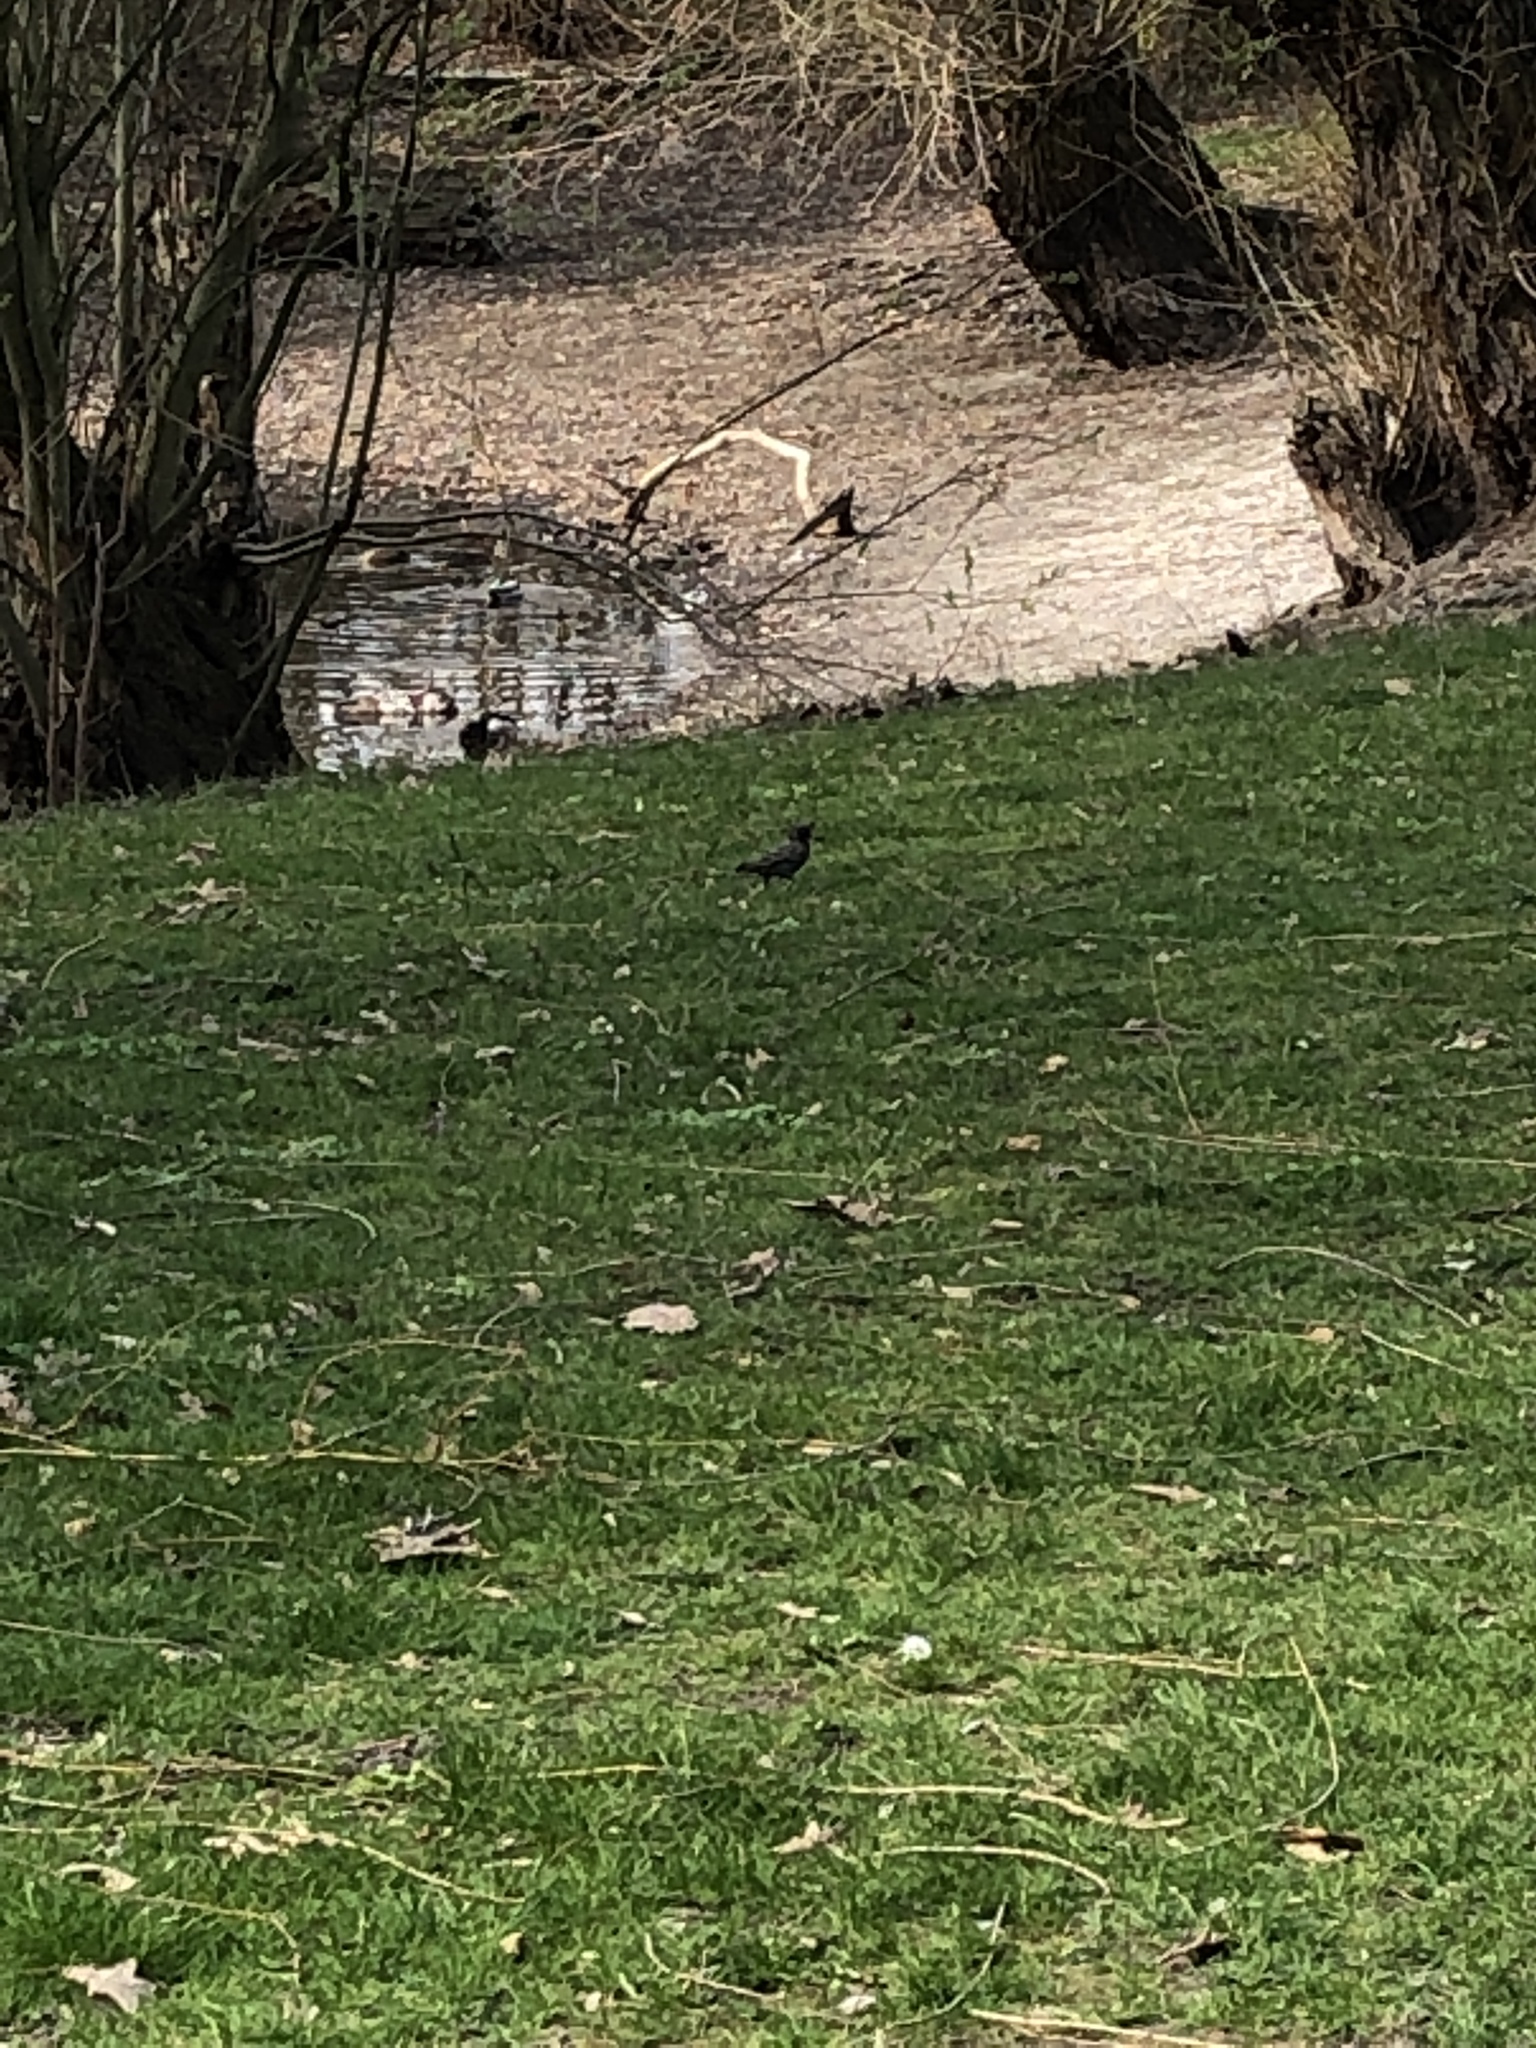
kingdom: Animalia
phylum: Chordata
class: Aves
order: Passeriformes
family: Sturnidae
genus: Sturnus
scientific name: Sturnus vulgaris
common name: Common starling
